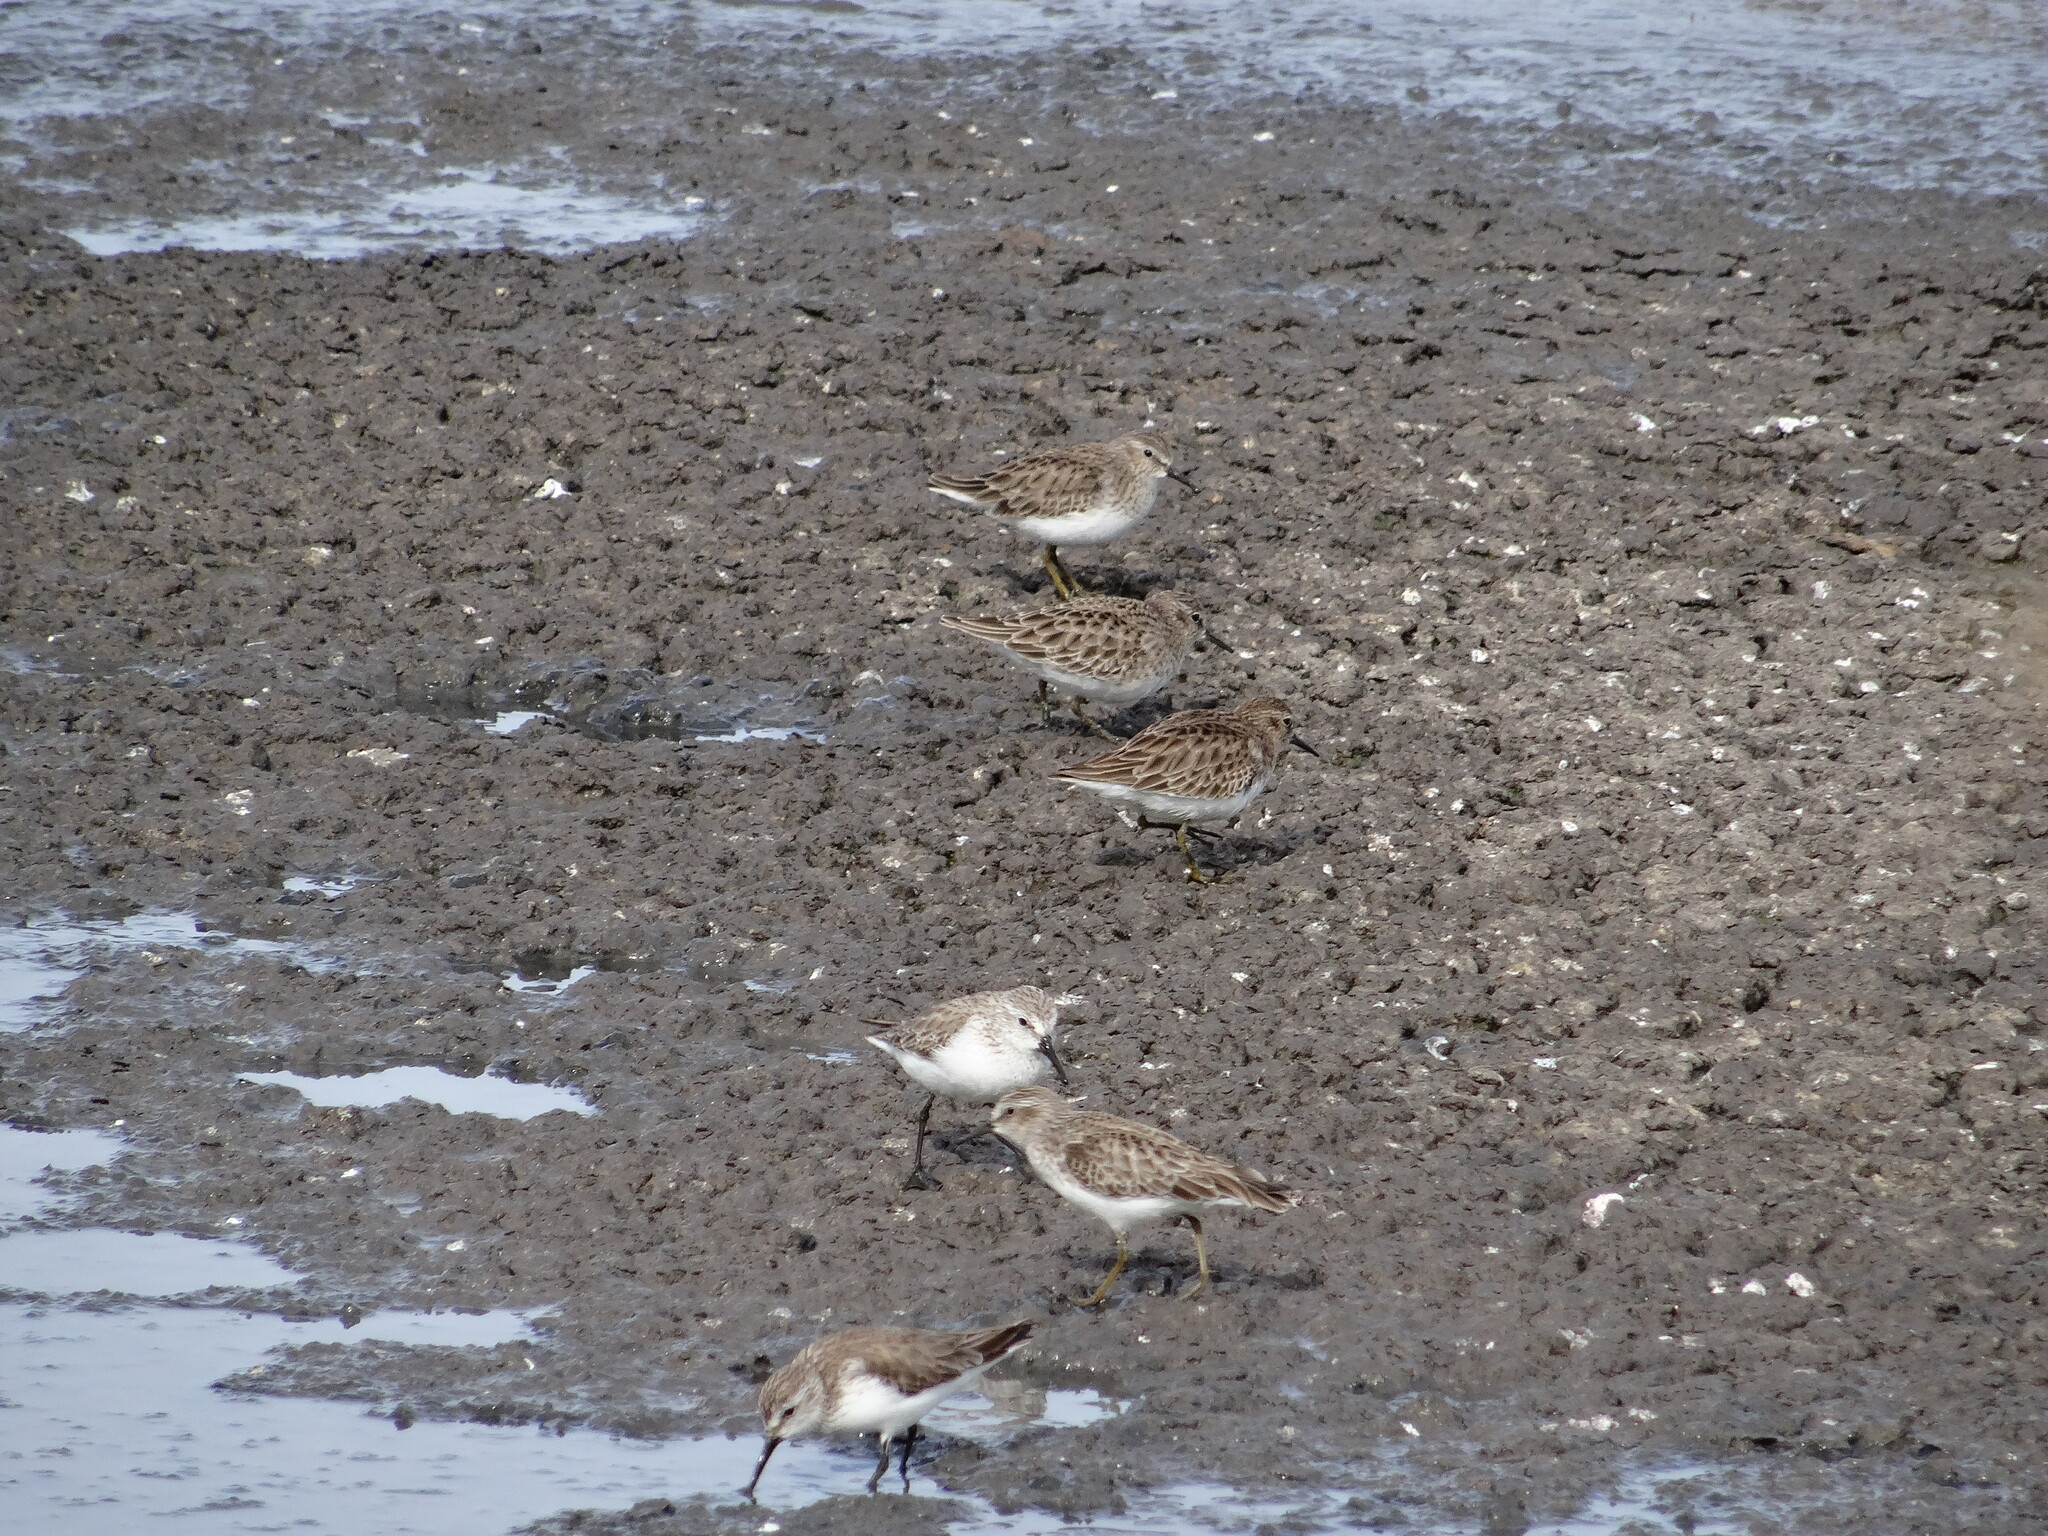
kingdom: Animalia
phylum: Chordata
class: Aves
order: Charadriiformes
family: Scolopacidae
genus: Calidris
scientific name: Calidris mauri
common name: Western sandpiper
